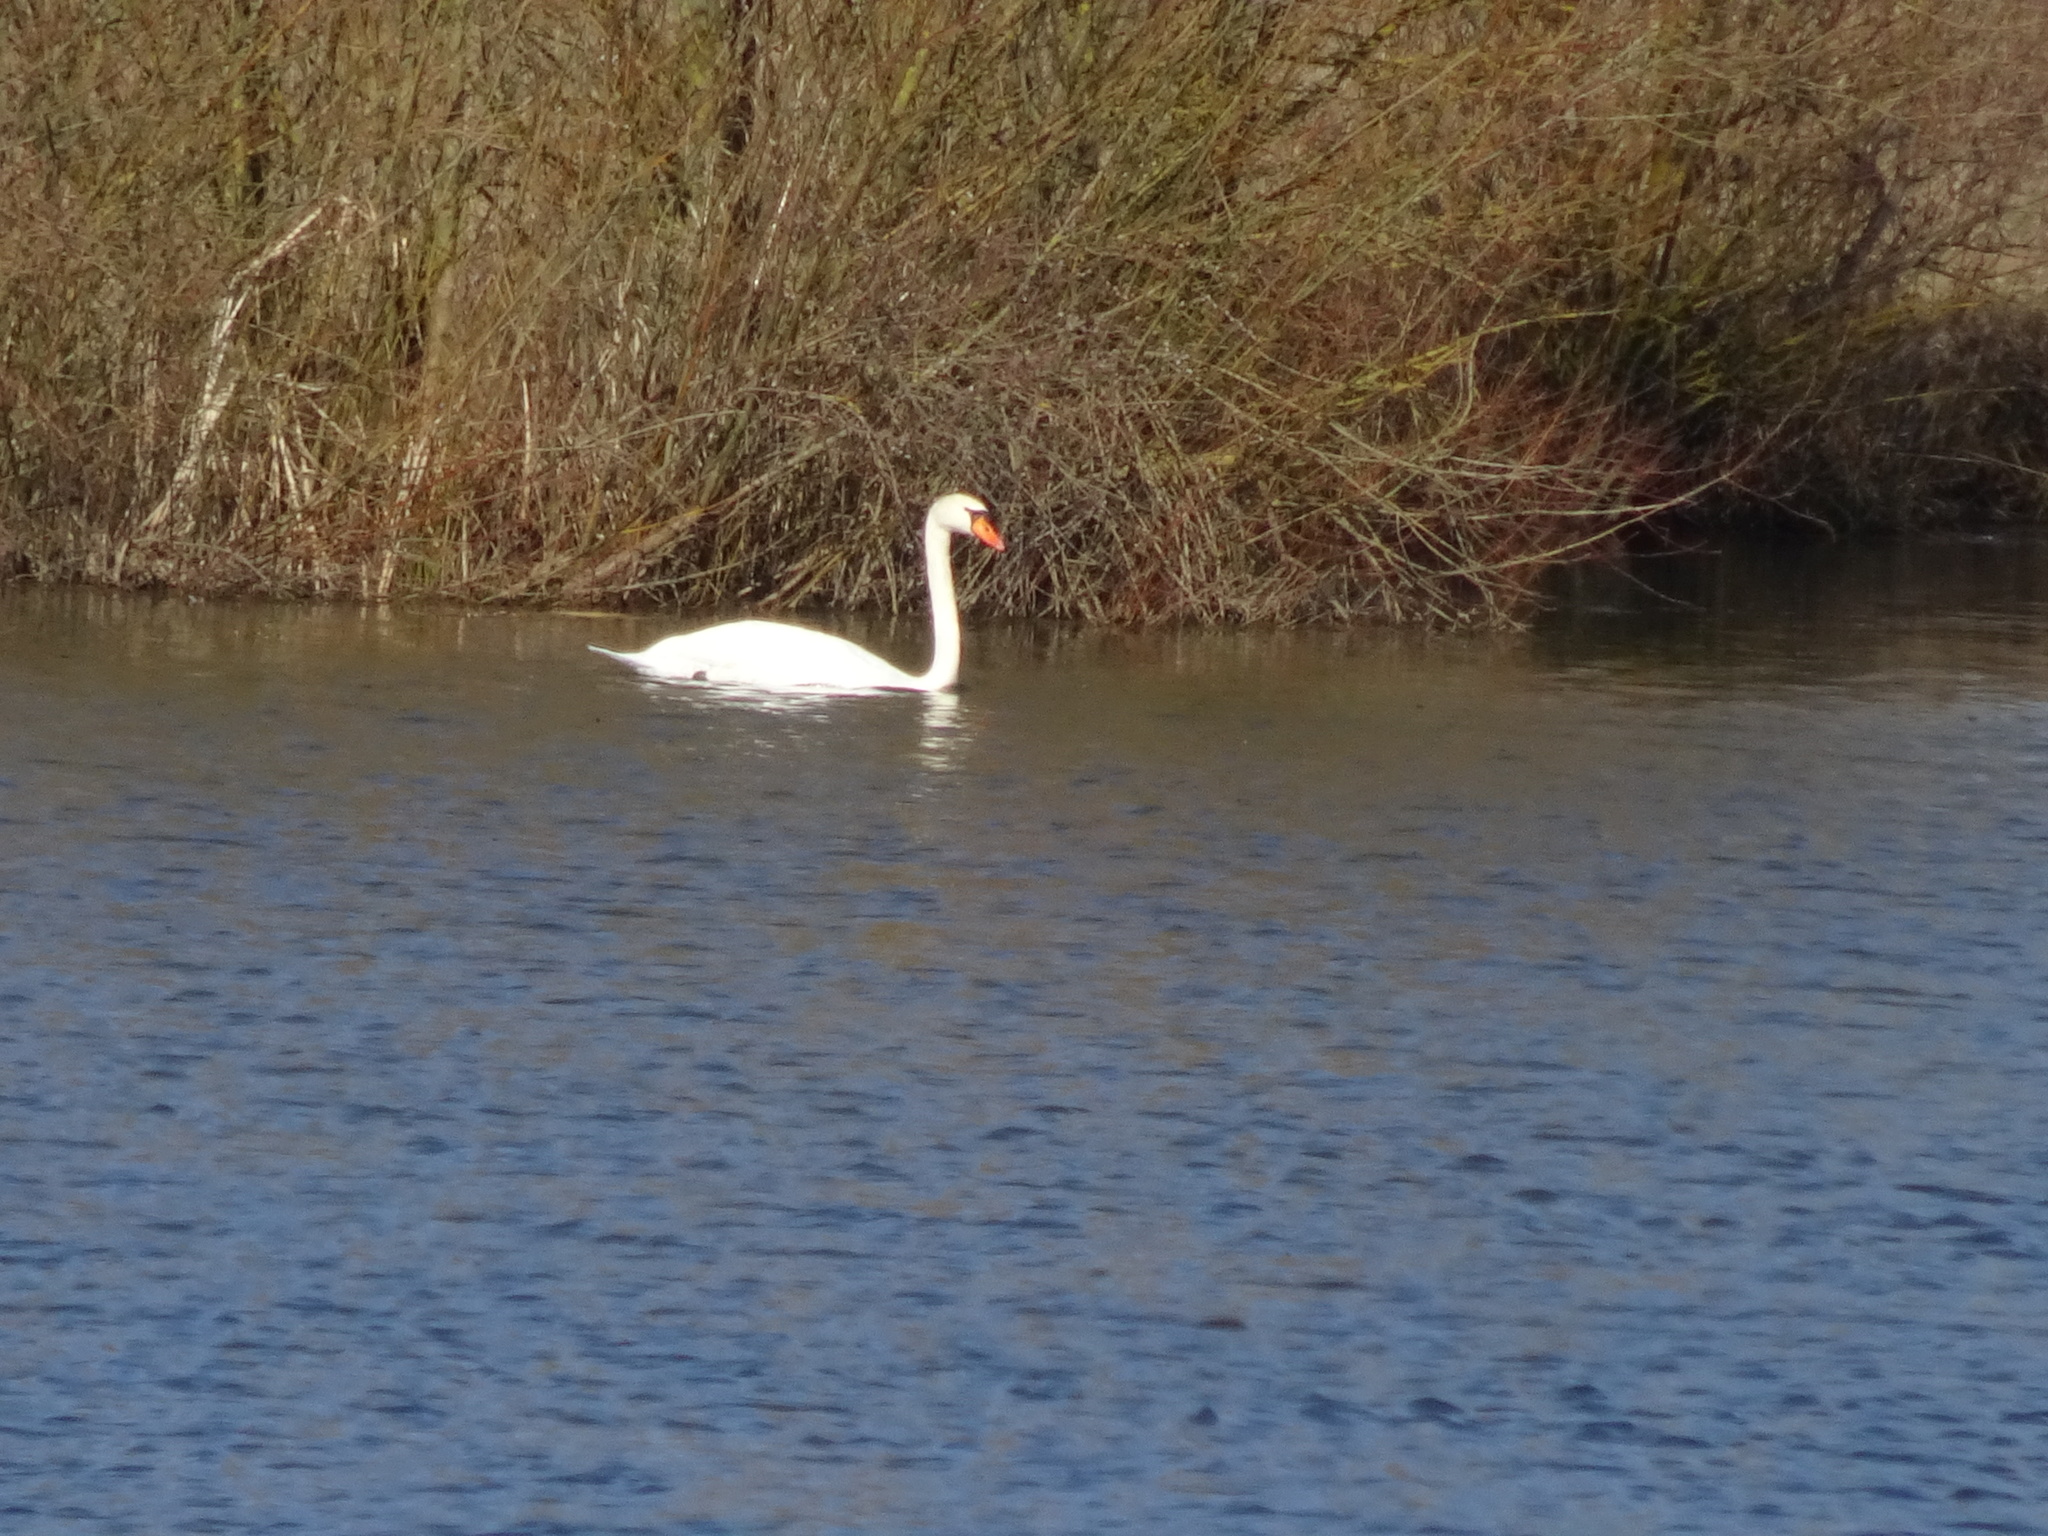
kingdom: Animalia
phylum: Chordata
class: Aves
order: Anseriformes
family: Anatidae
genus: Cygnus
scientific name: Cygnus olor
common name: Mute swan
